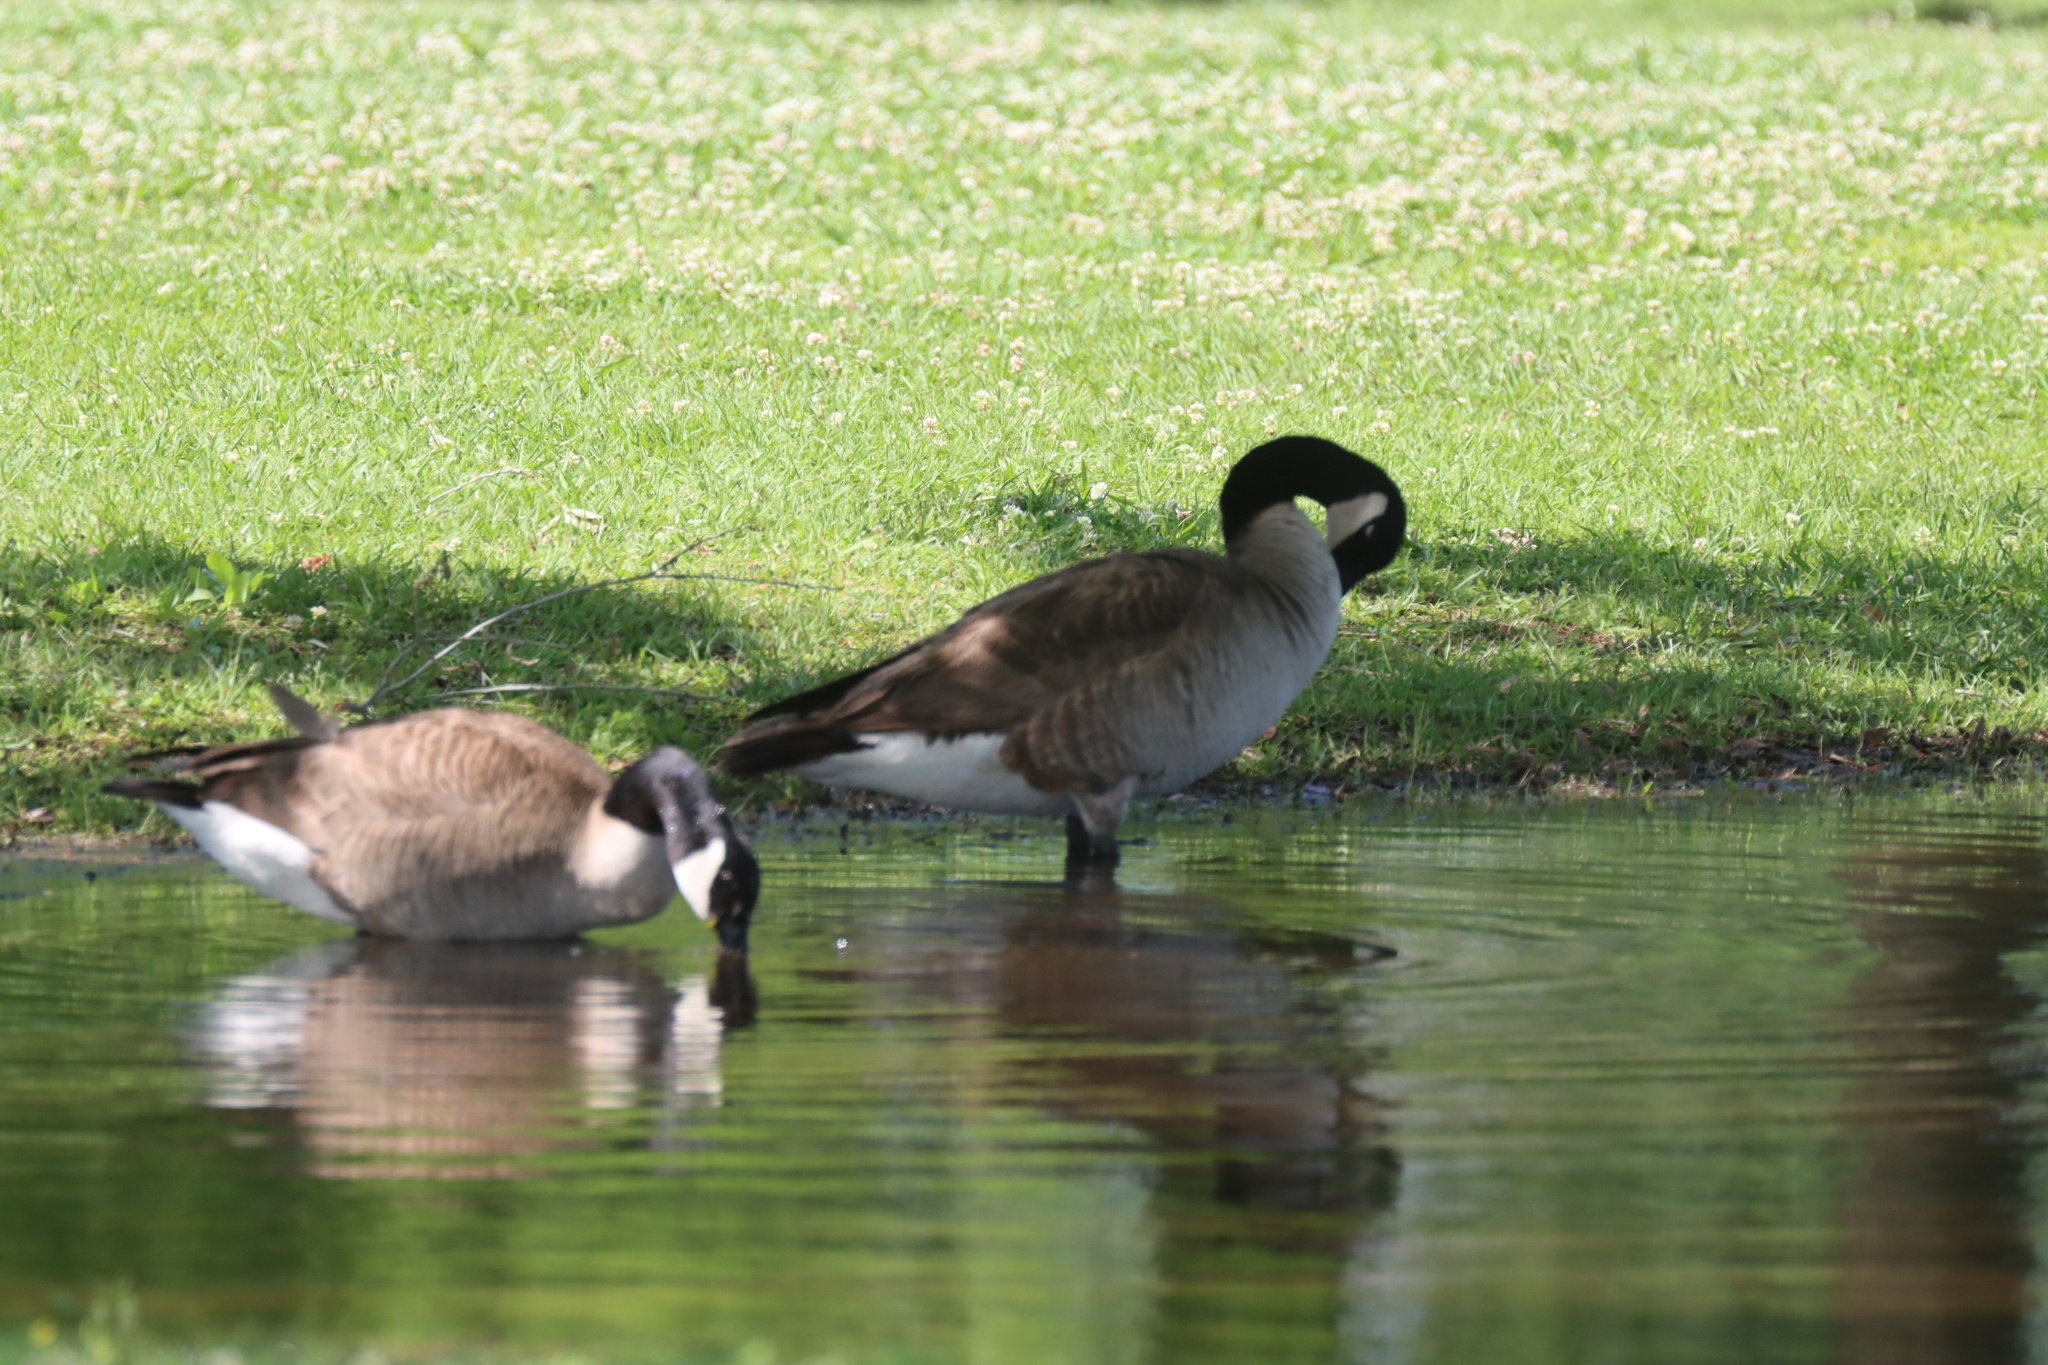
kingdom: Animalia
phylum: Chordata
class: Aves
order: Anseriformes
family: Anatidae
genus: Branta
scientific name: Branta canadensis
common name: Canada goose
